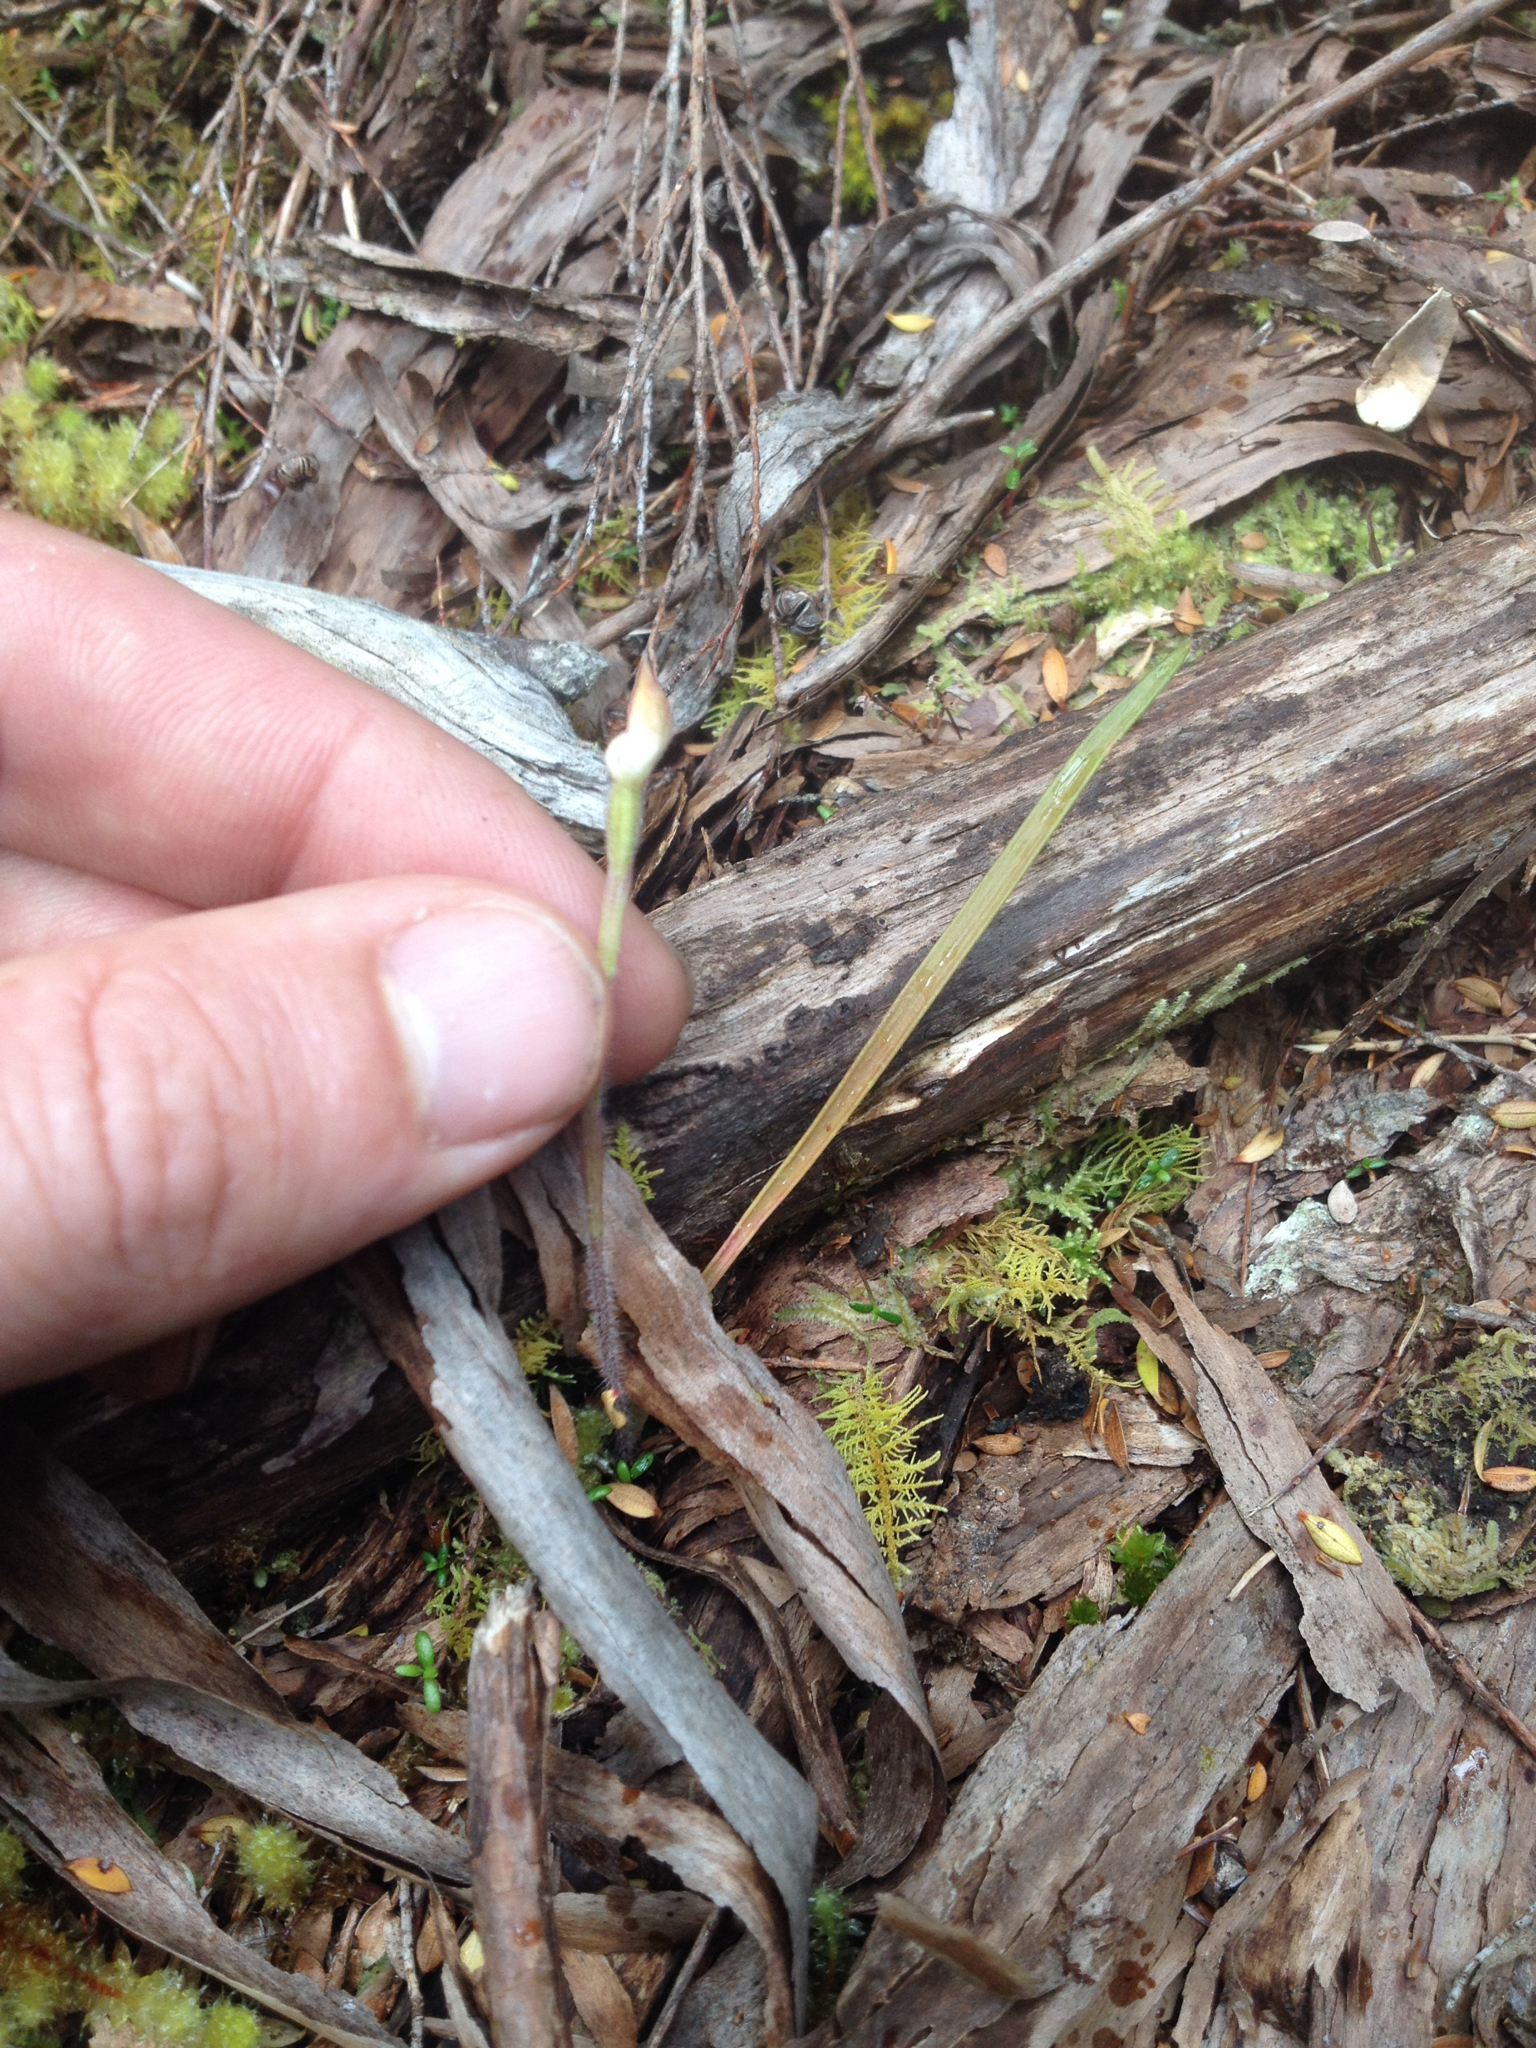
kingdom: Plantae
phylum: Tracheophyta
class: Liliopsida
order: Asparagales
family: Orchidaceae
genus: Caladenia
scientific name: Caladenia lyallii
